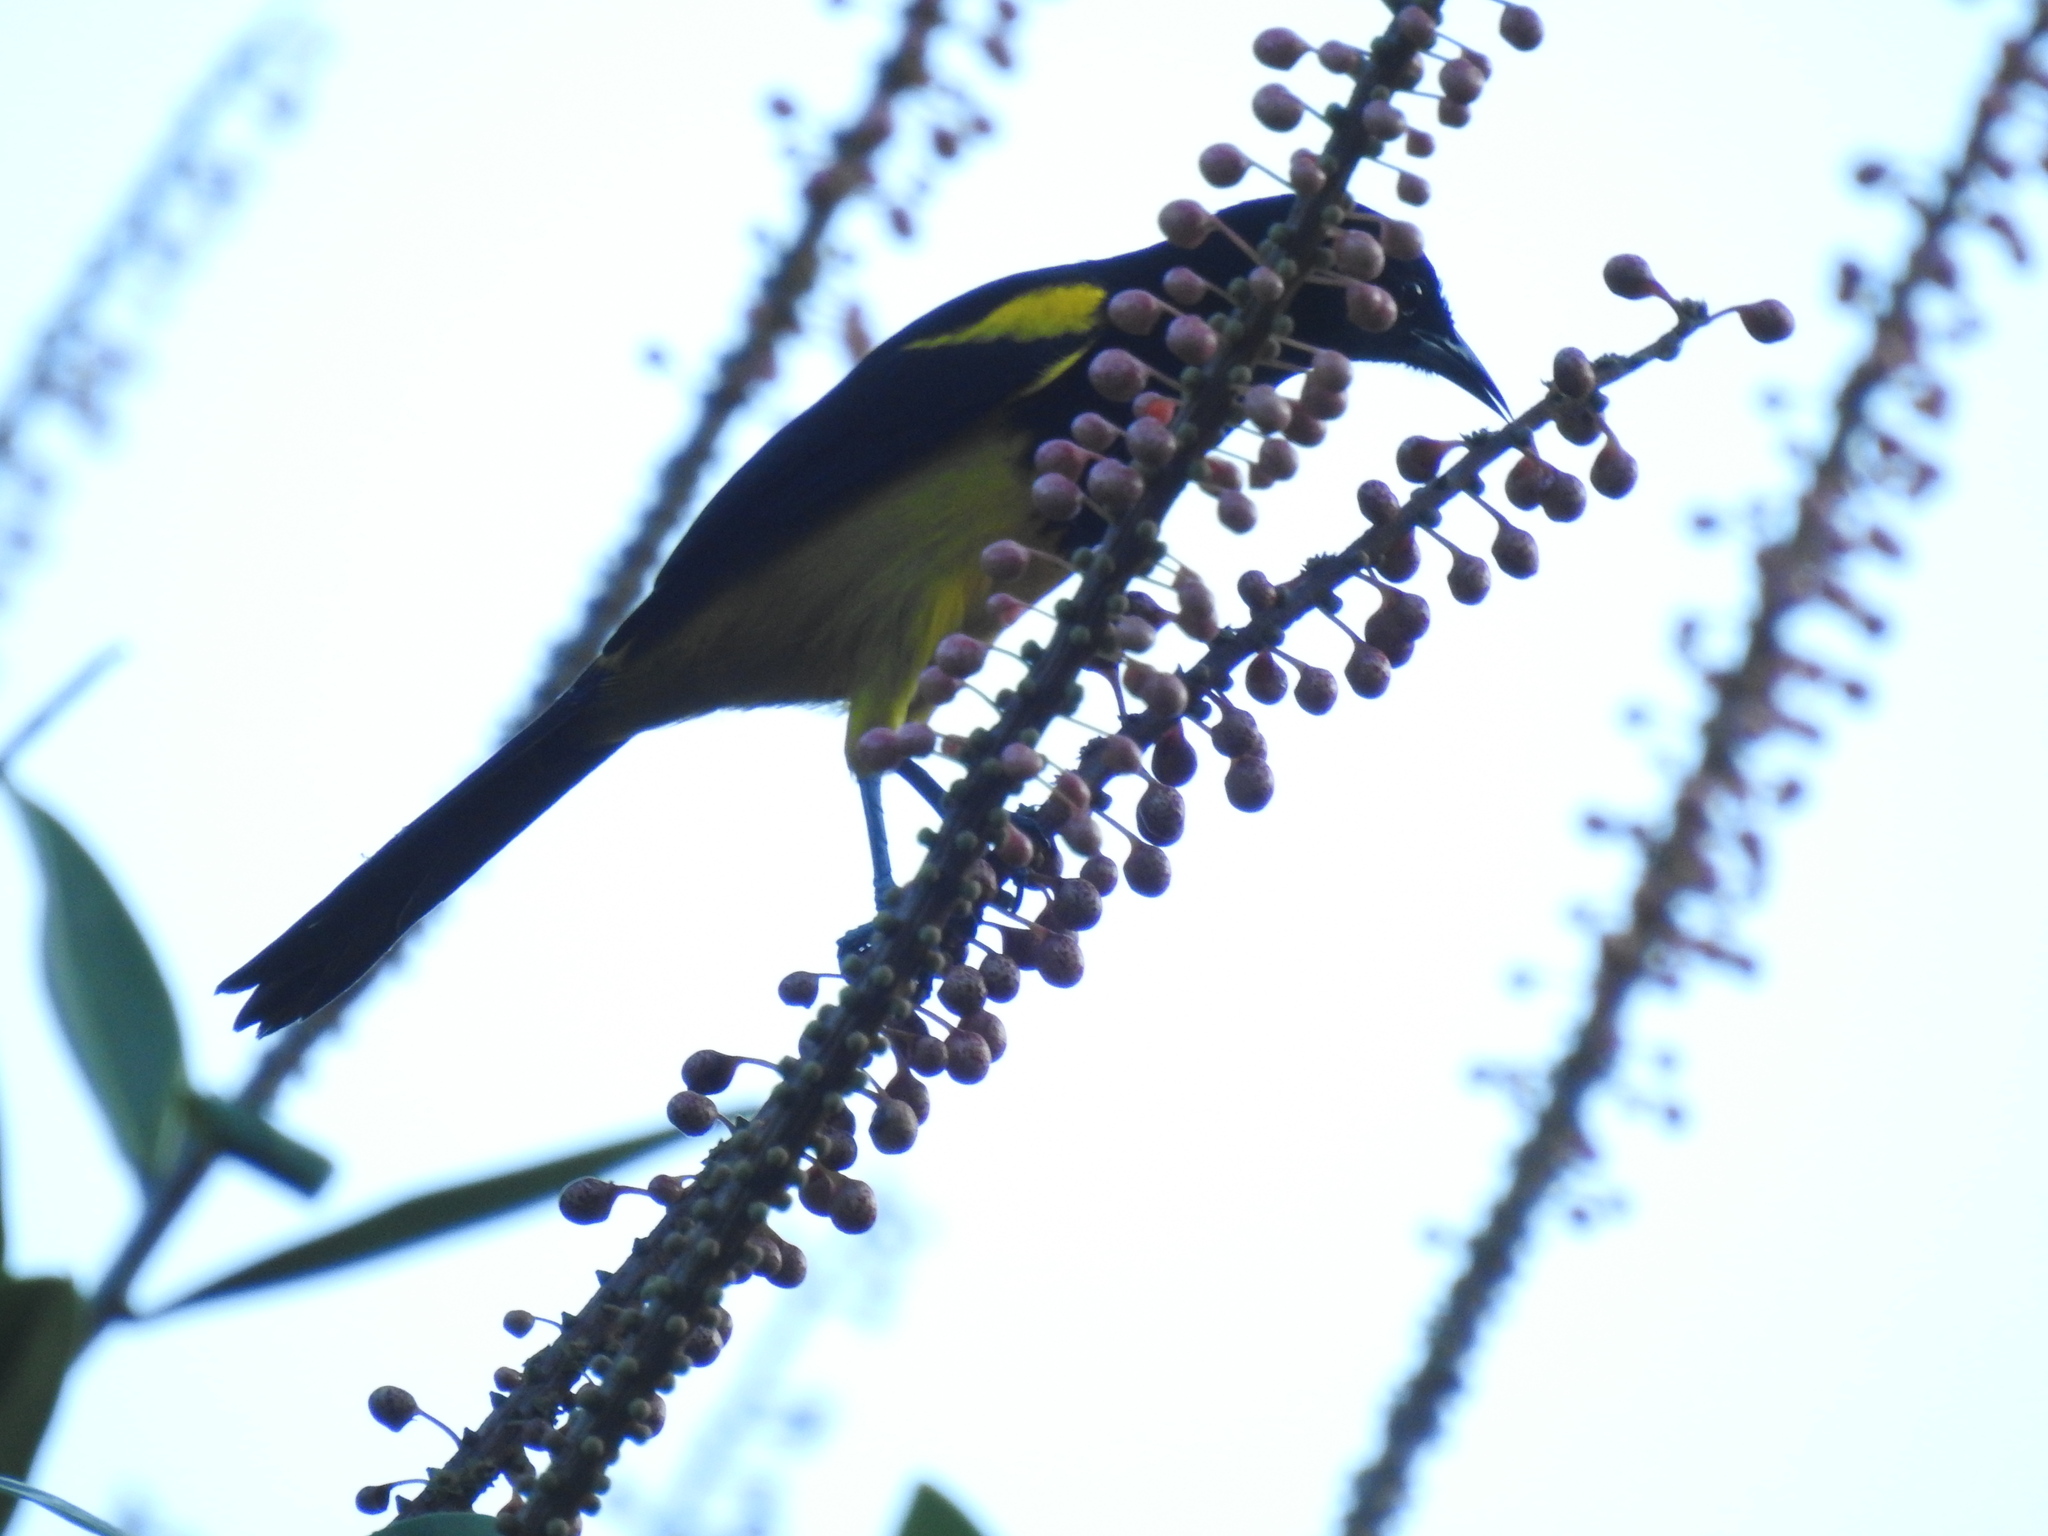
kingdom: Animalia
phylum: Chordata
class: Aves
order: Passeriformes
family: Icteridae
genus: Icterus
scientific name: Icterus prosthemelas
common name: Black-cowled oriole
